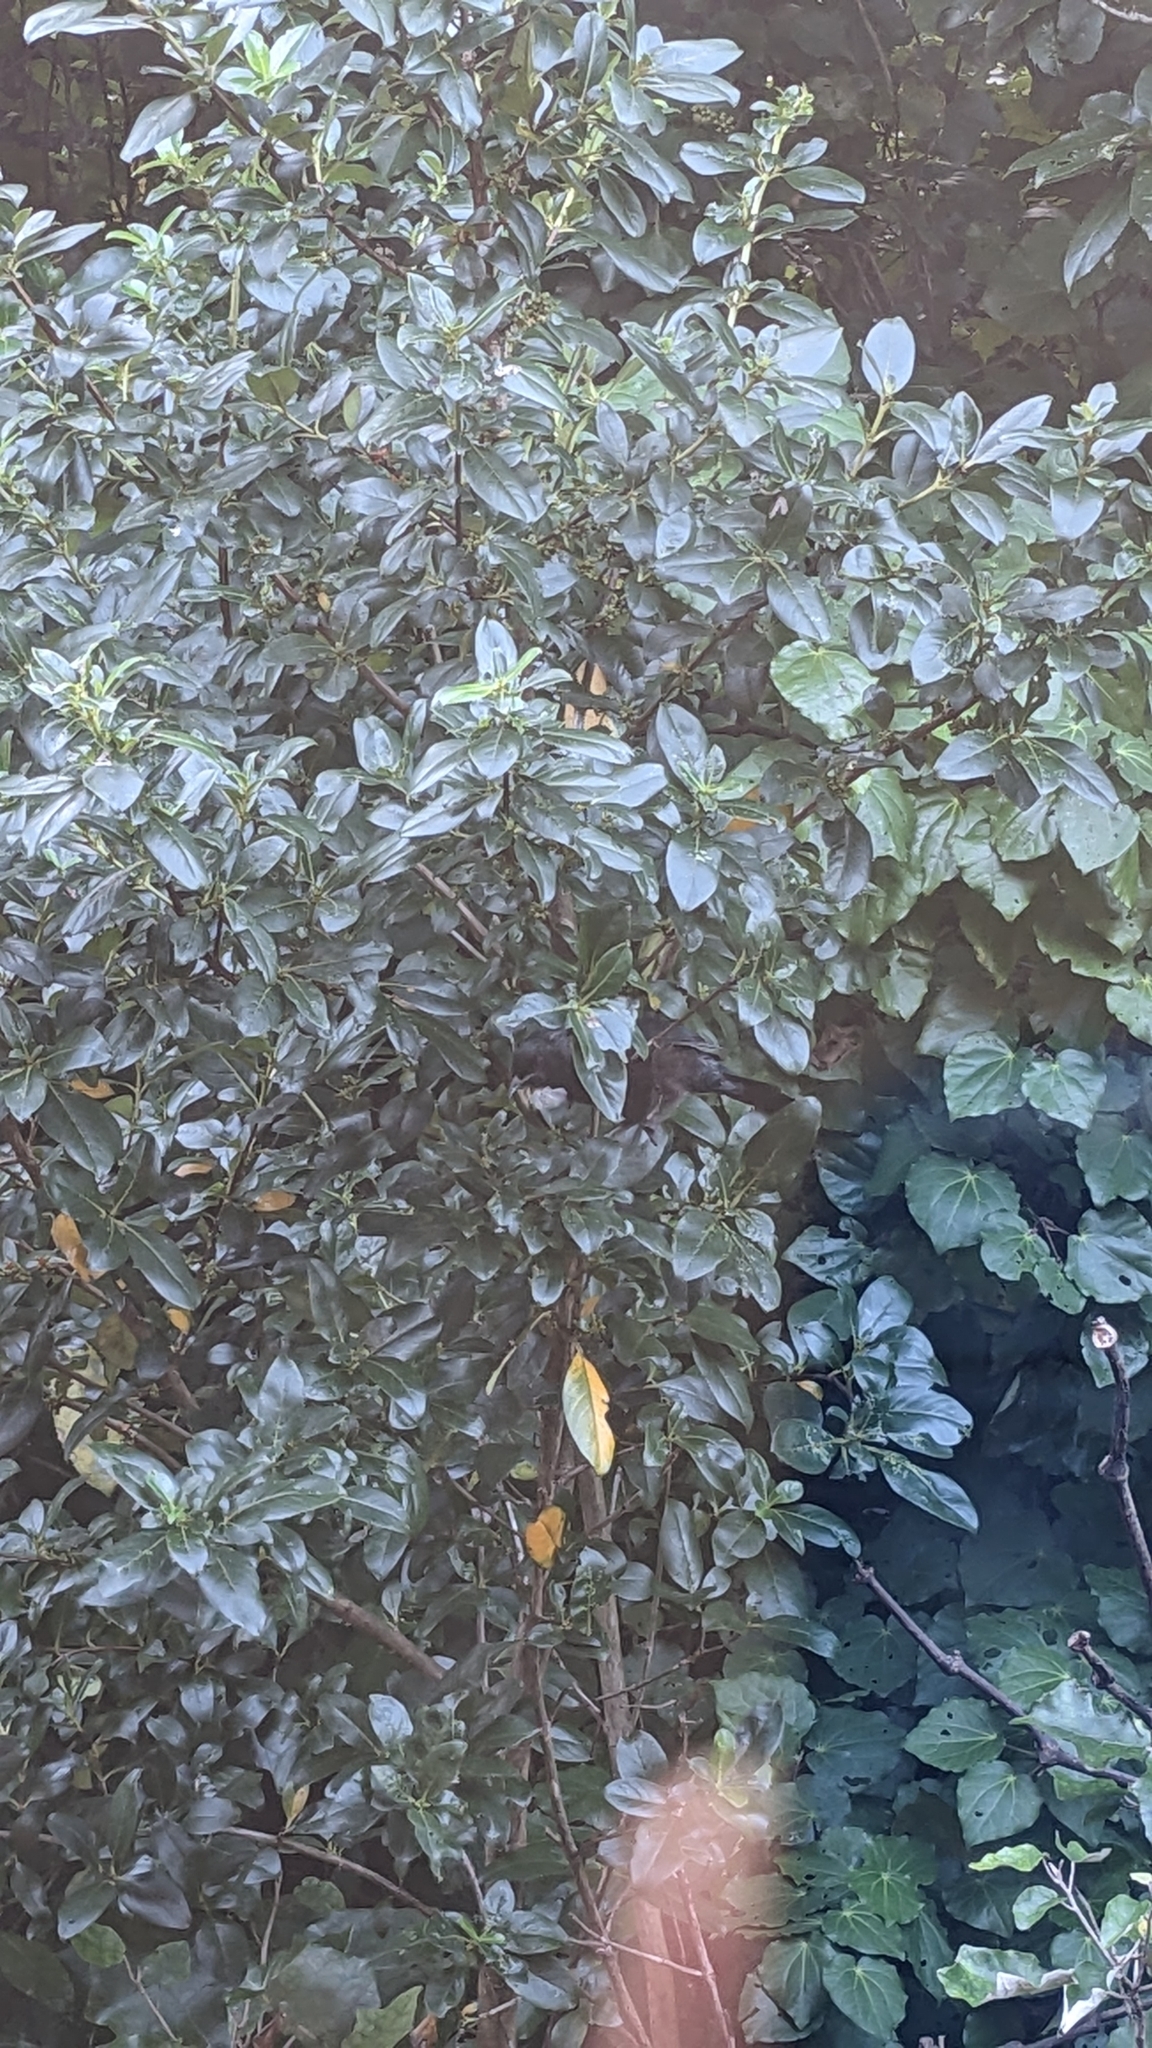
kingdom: Animalia
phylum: Chordata
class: Aves
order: Passeriformes
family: Meliphagidae
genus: Prosthemadera
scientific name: Prosthemadera novaeseelandiae
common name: Tui
